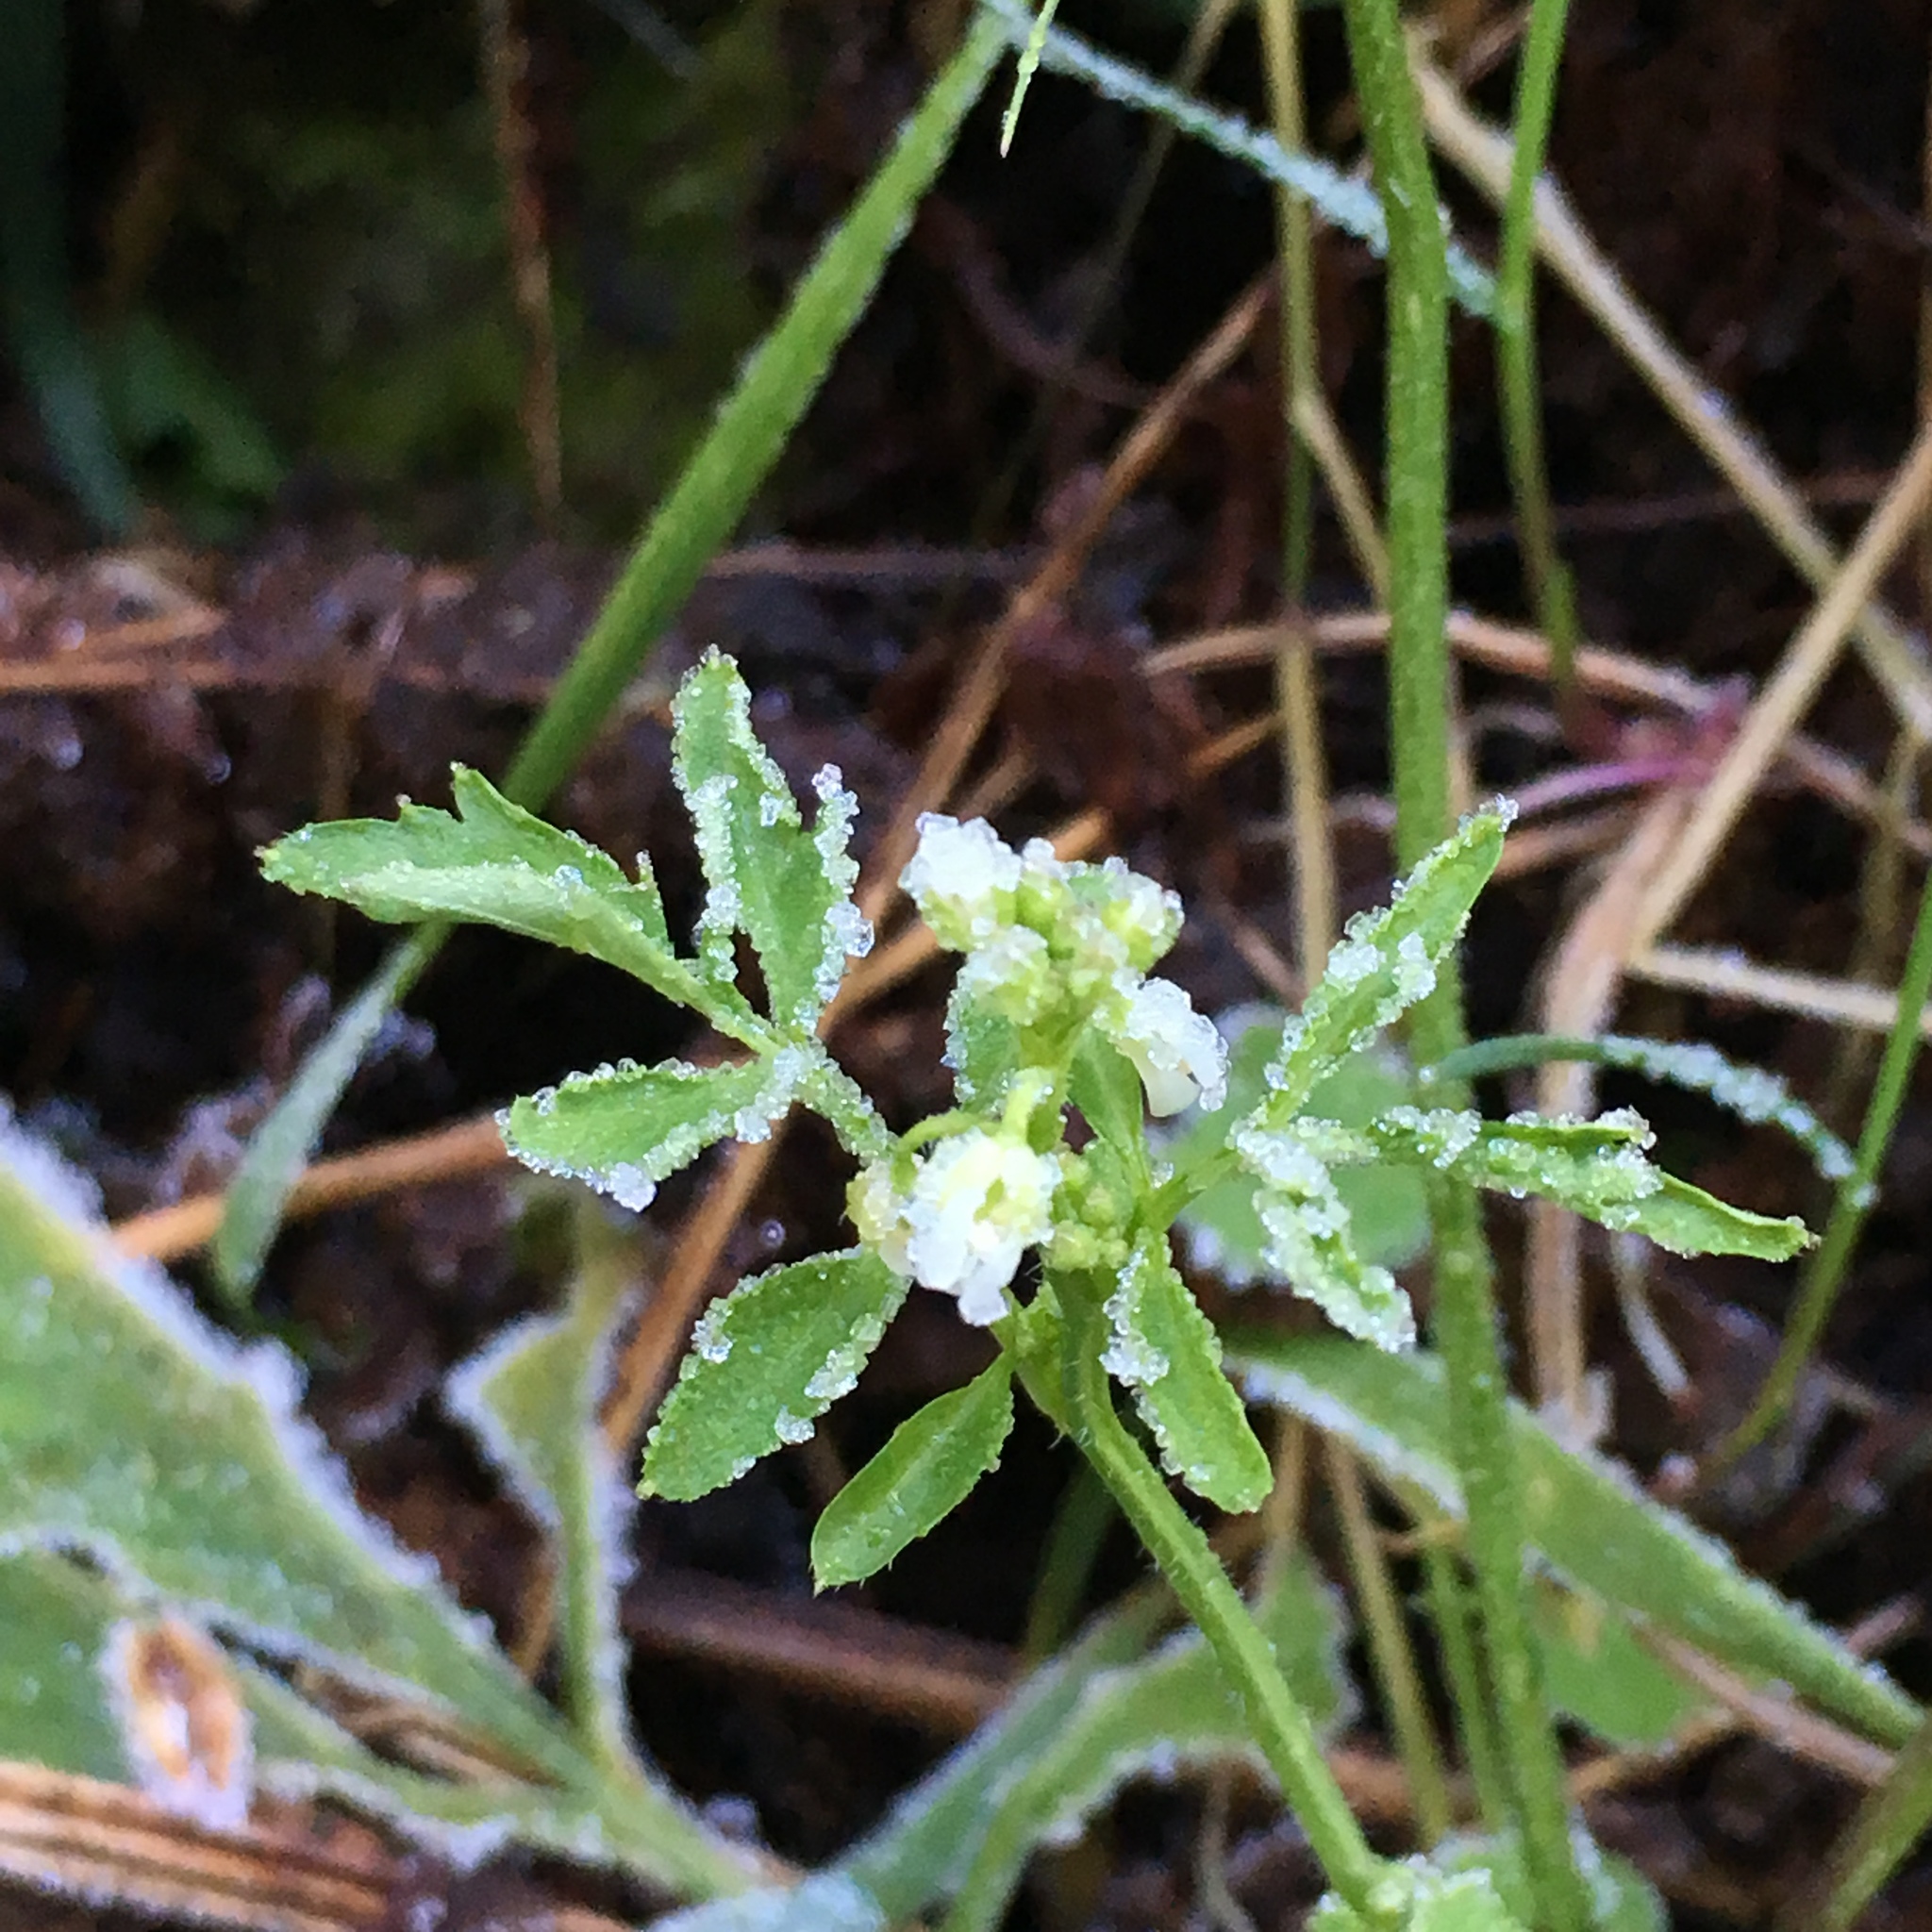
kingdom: Plantae
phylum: Tracheophyta
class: Magnoliopsida
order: Brassicales
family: Brassicaceae
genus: Cardamine
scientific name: Cardamine flexuosa
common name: Woodland bittercress
